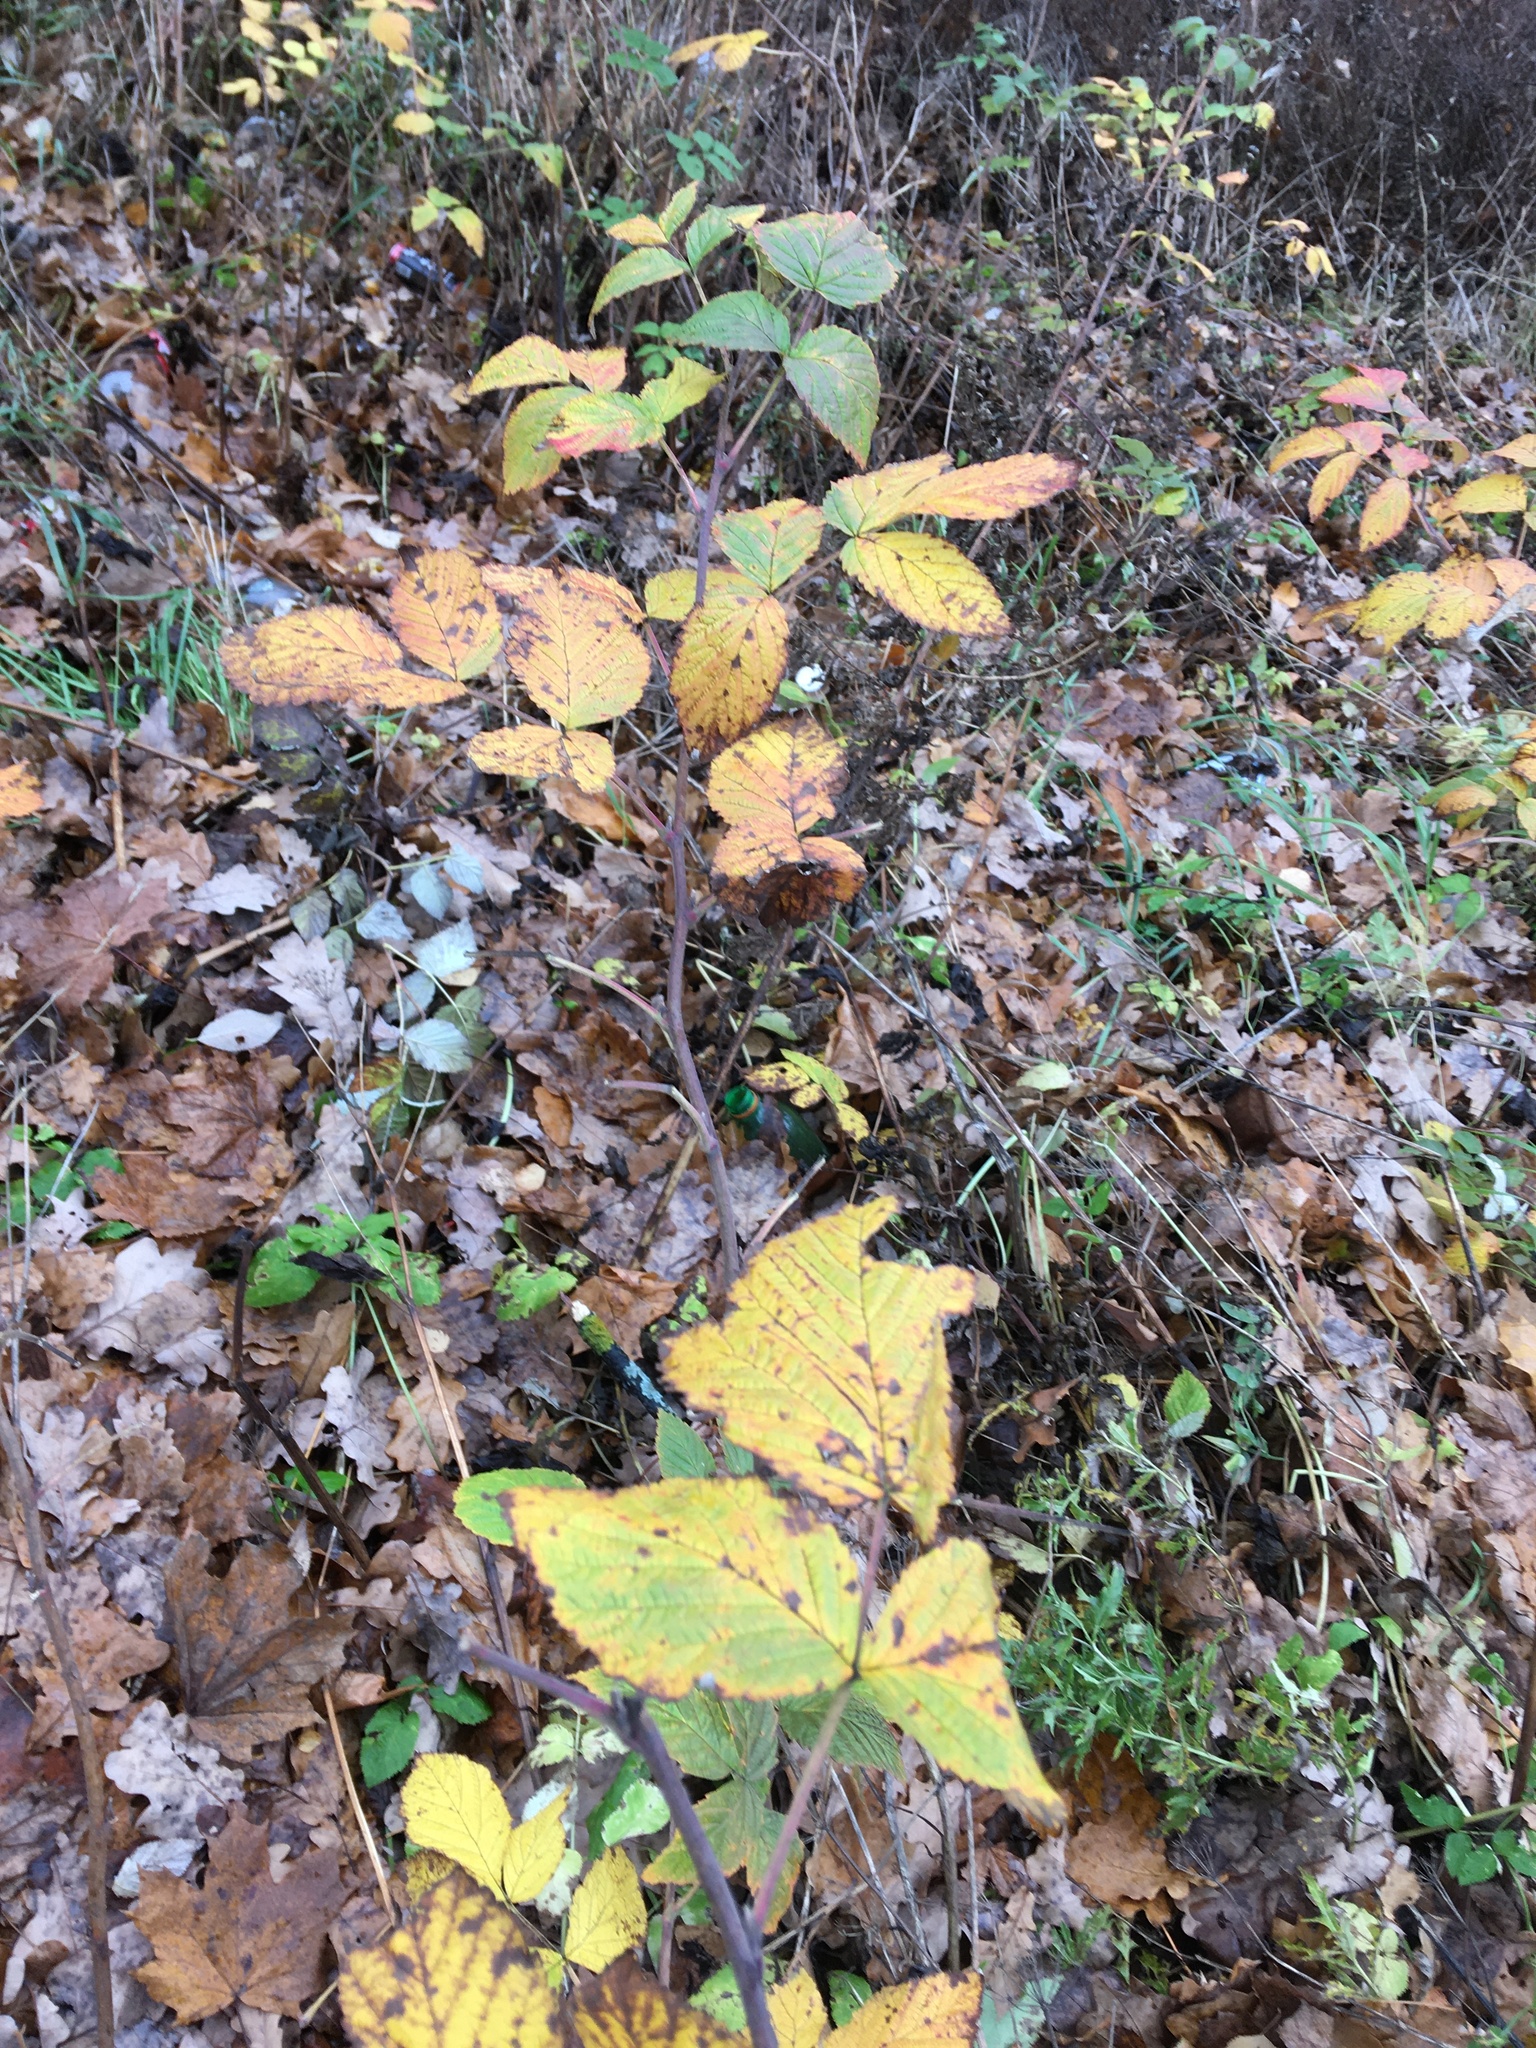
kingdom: Plantae
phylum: Tracheophyta
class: Magnoliopsida
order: Rosales
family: Rosaceae
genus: Rubus
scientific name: Rubus idaeus
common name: Raspberry
